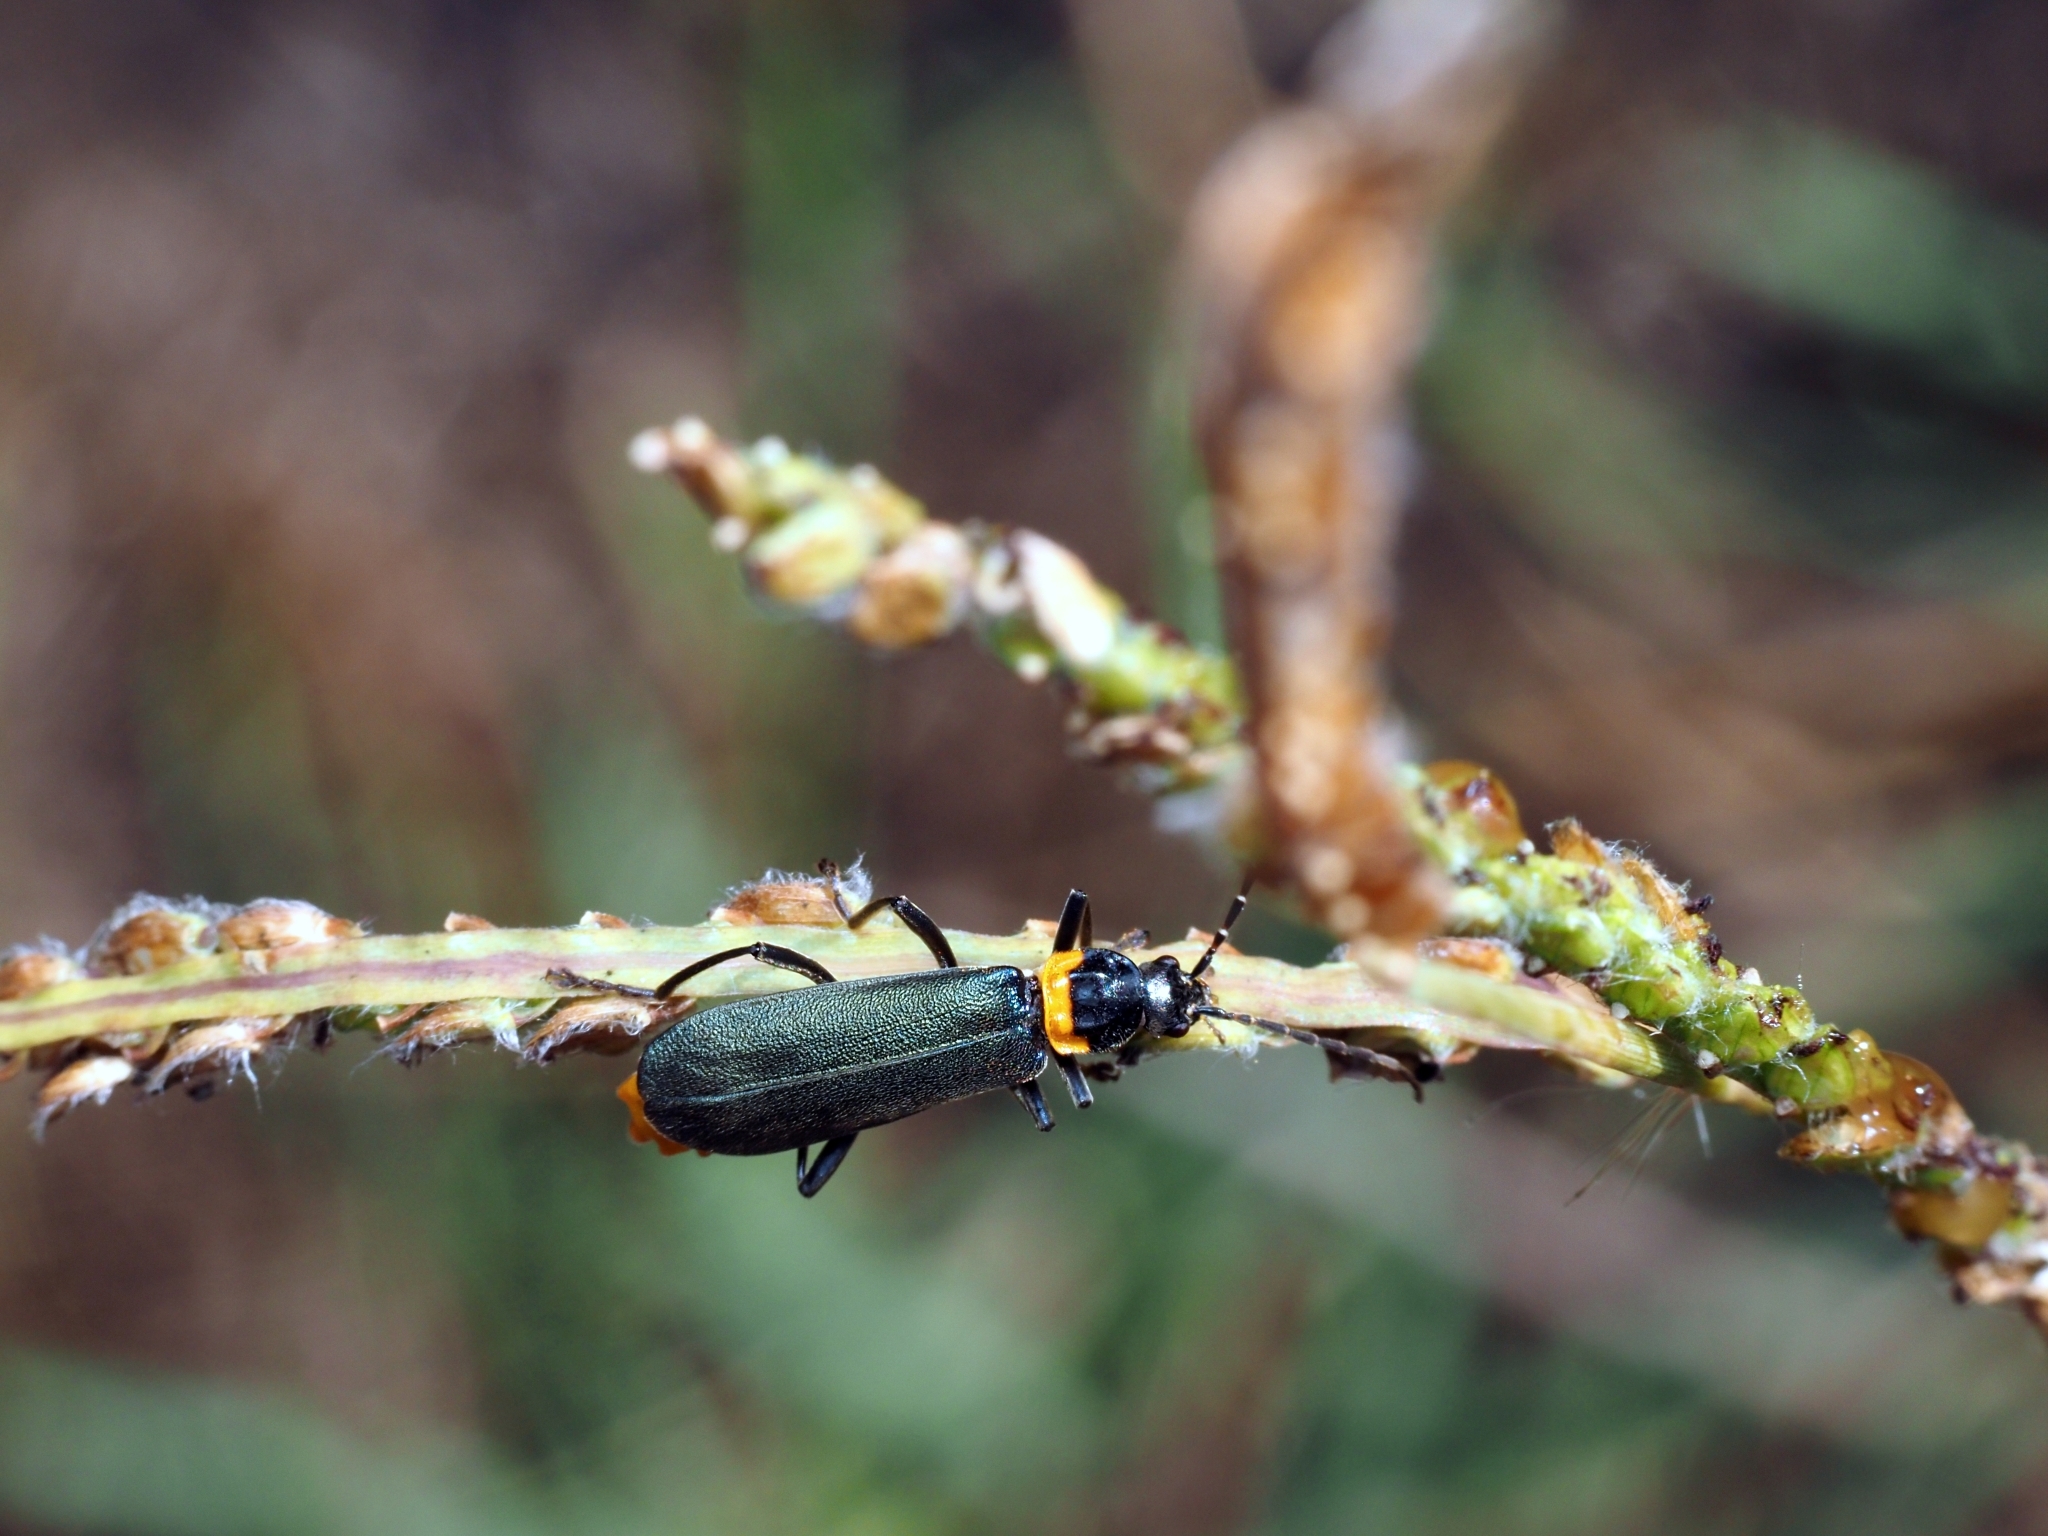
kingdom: Animalia
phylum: Arthropoda
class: Insecta
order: Coleoptera
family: Cantharidae
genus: Chauliognathus
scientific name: Chauliognathus
